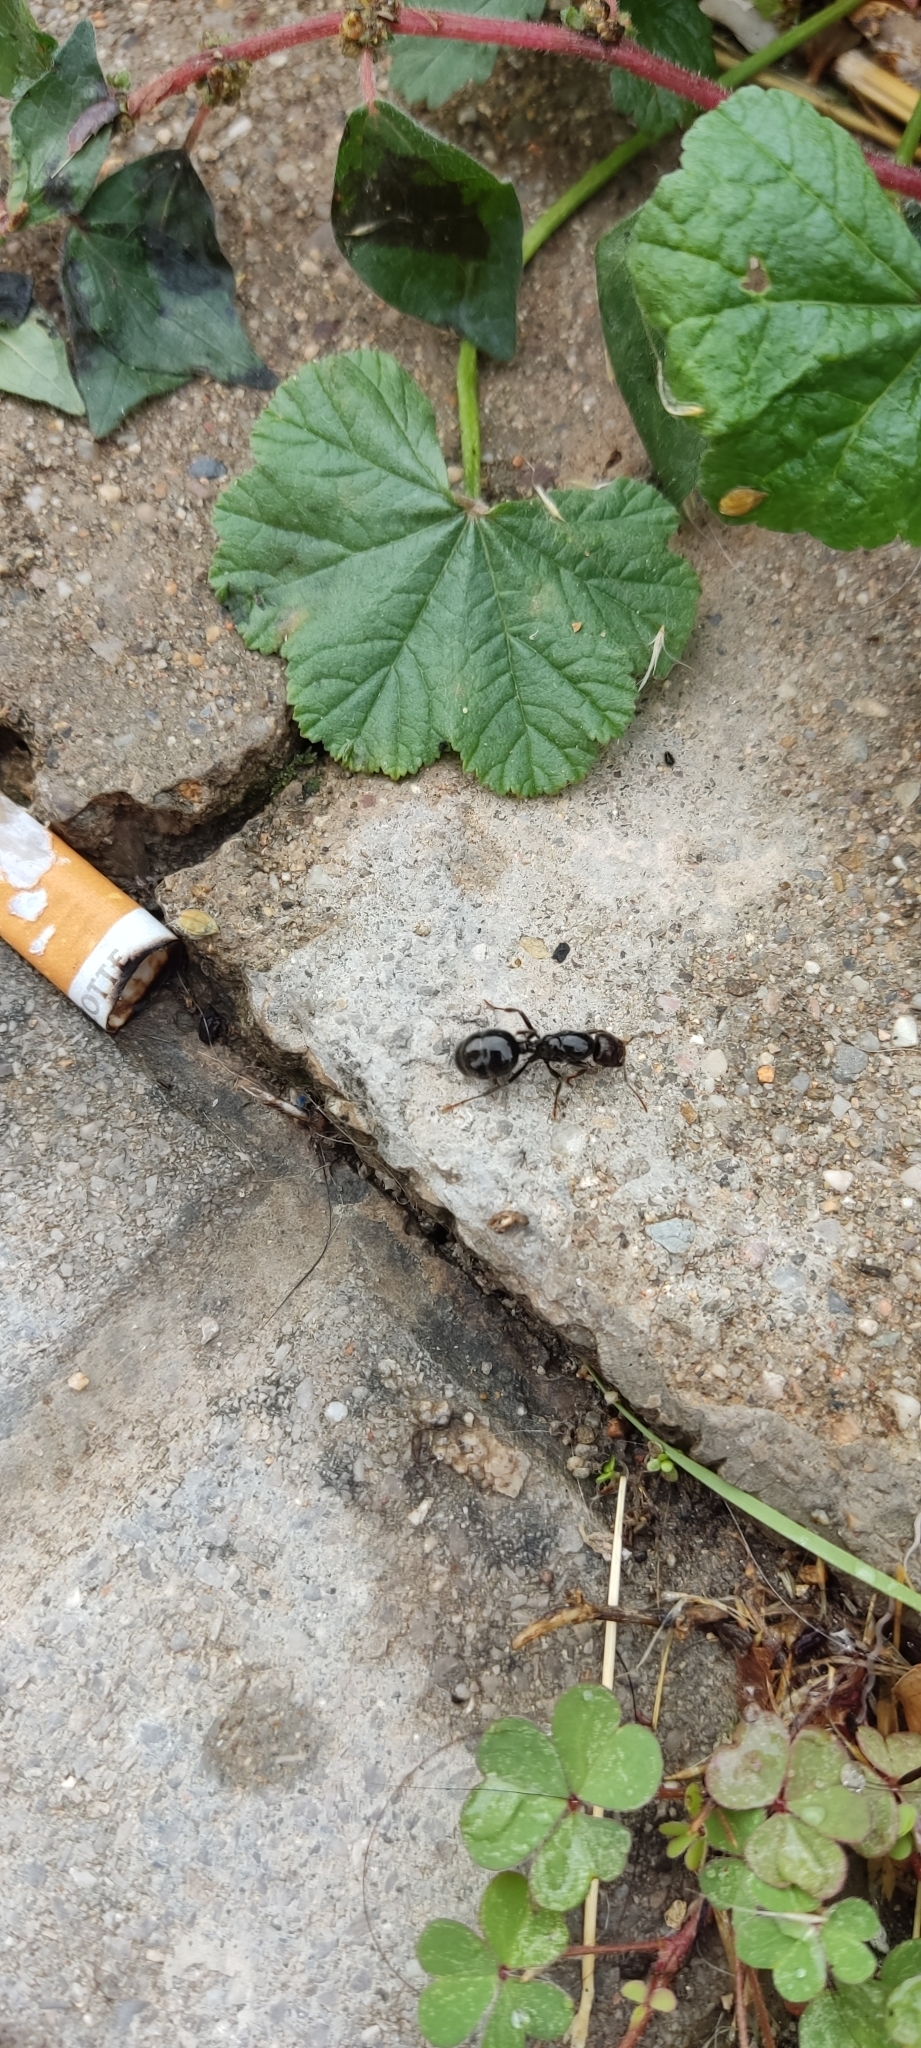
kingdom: Animalia
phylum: Arthropoda
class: Insecta
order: Hymenoptera
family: Formicidae
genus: Messor
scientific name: Messor barbarus
